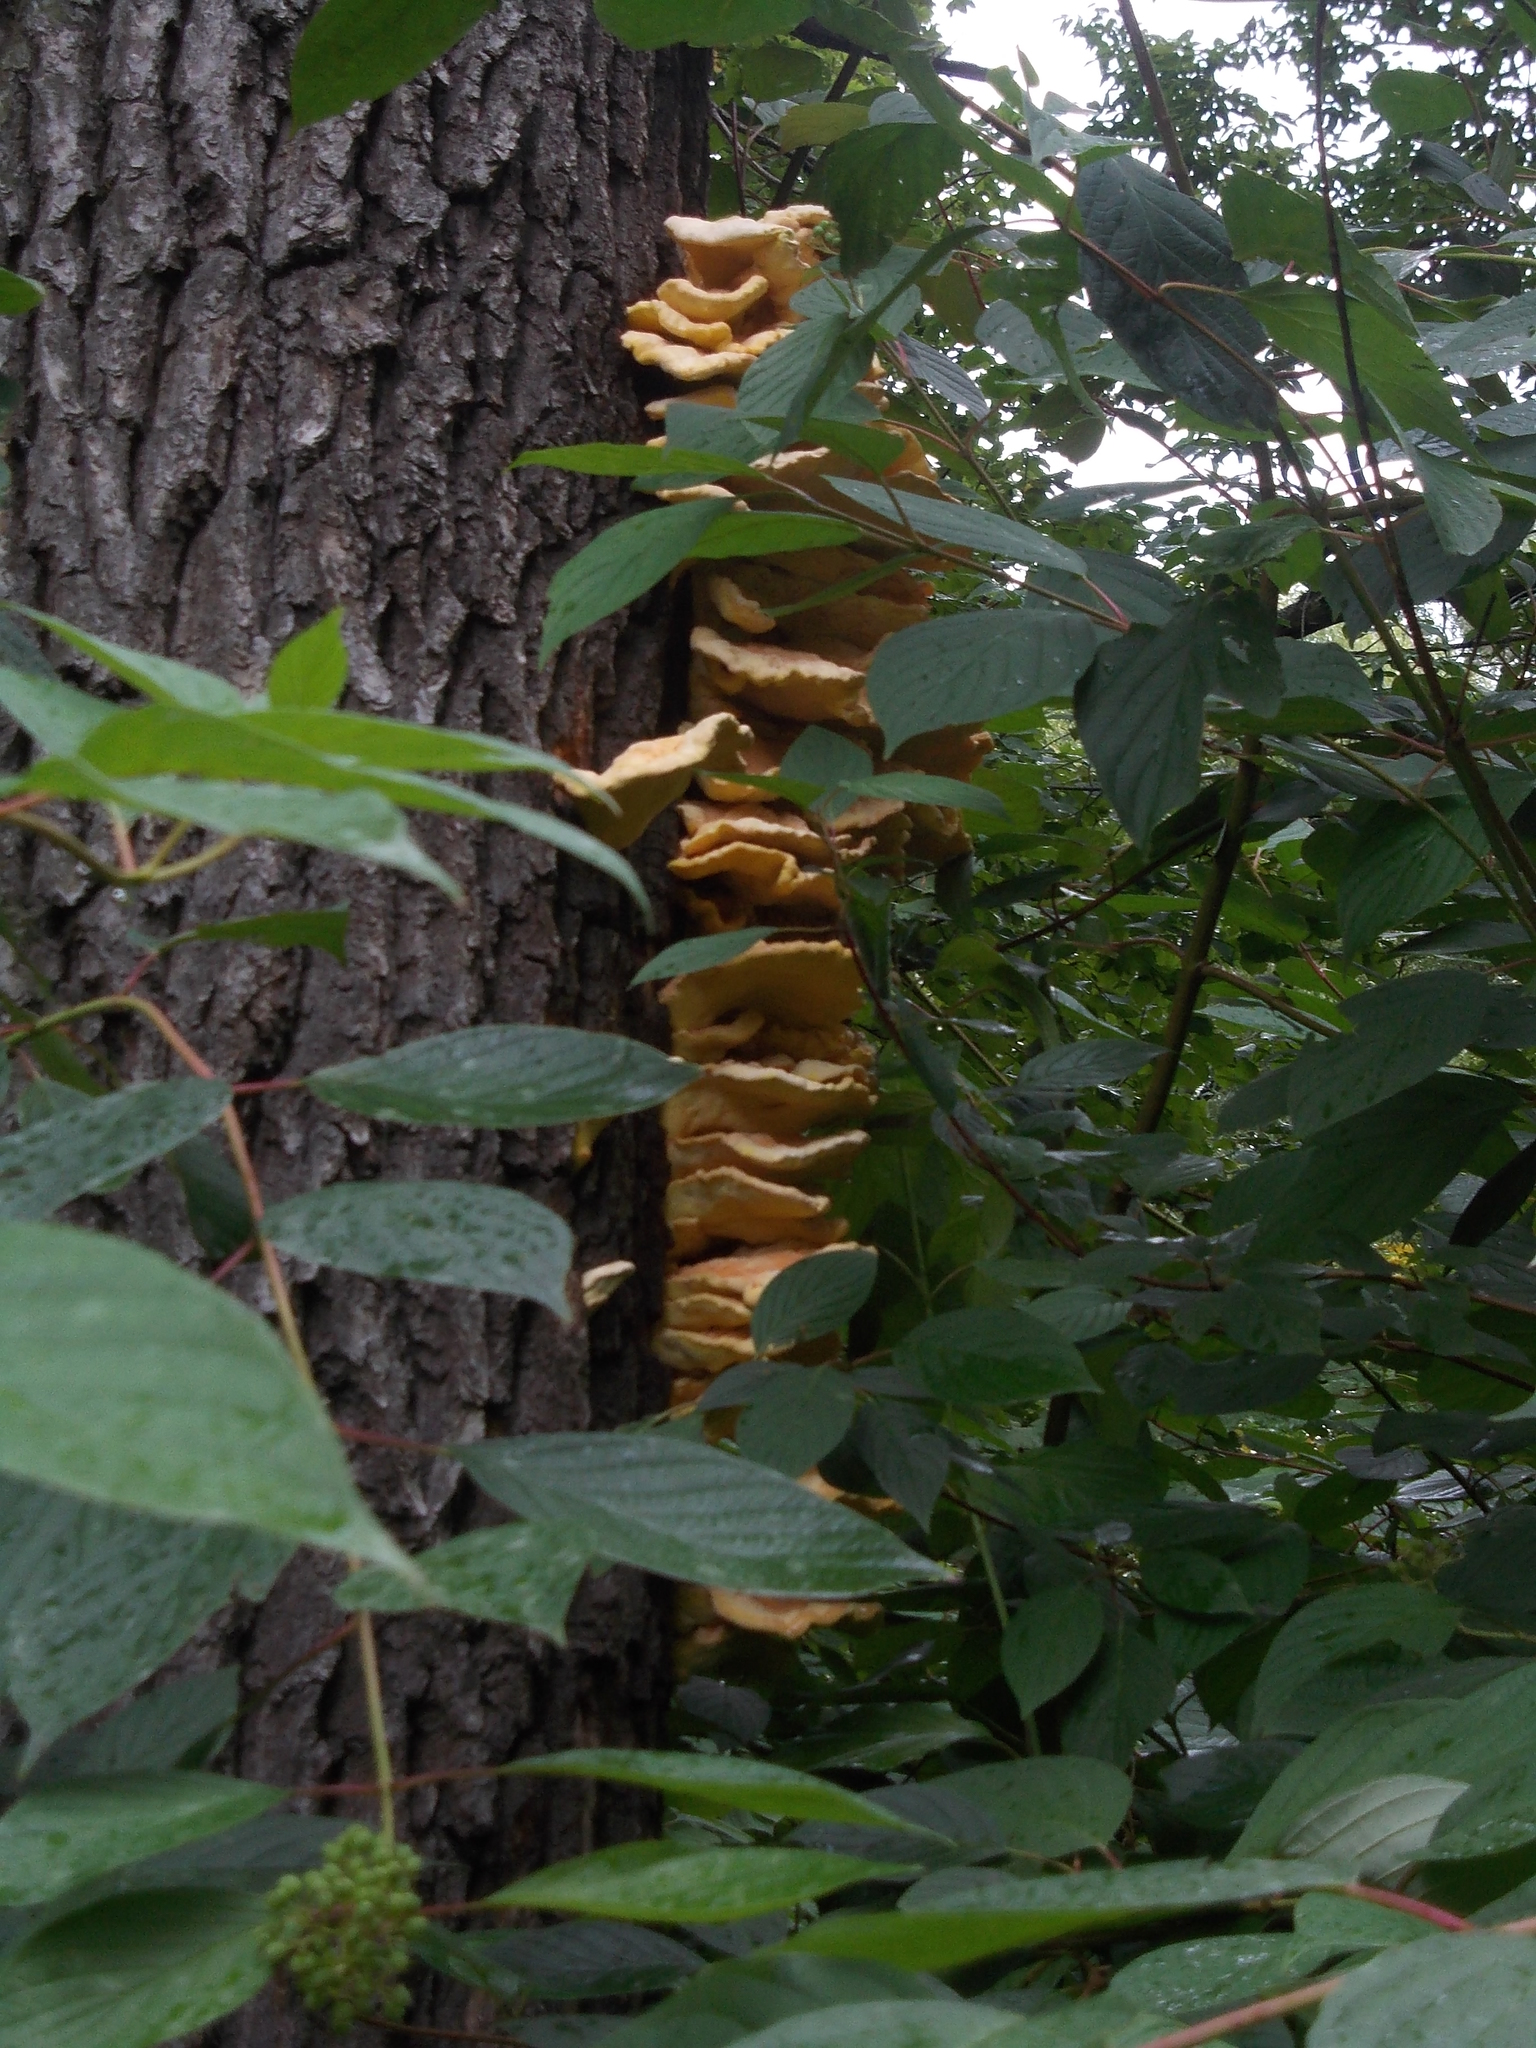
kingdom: Fungi
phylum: Basidiomycota
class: Agaricomycetes
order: Polyporales
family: Laetiporaceae
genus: Laetiporus
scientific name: Laetiporus sulphureus
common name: Chicken of the woods
